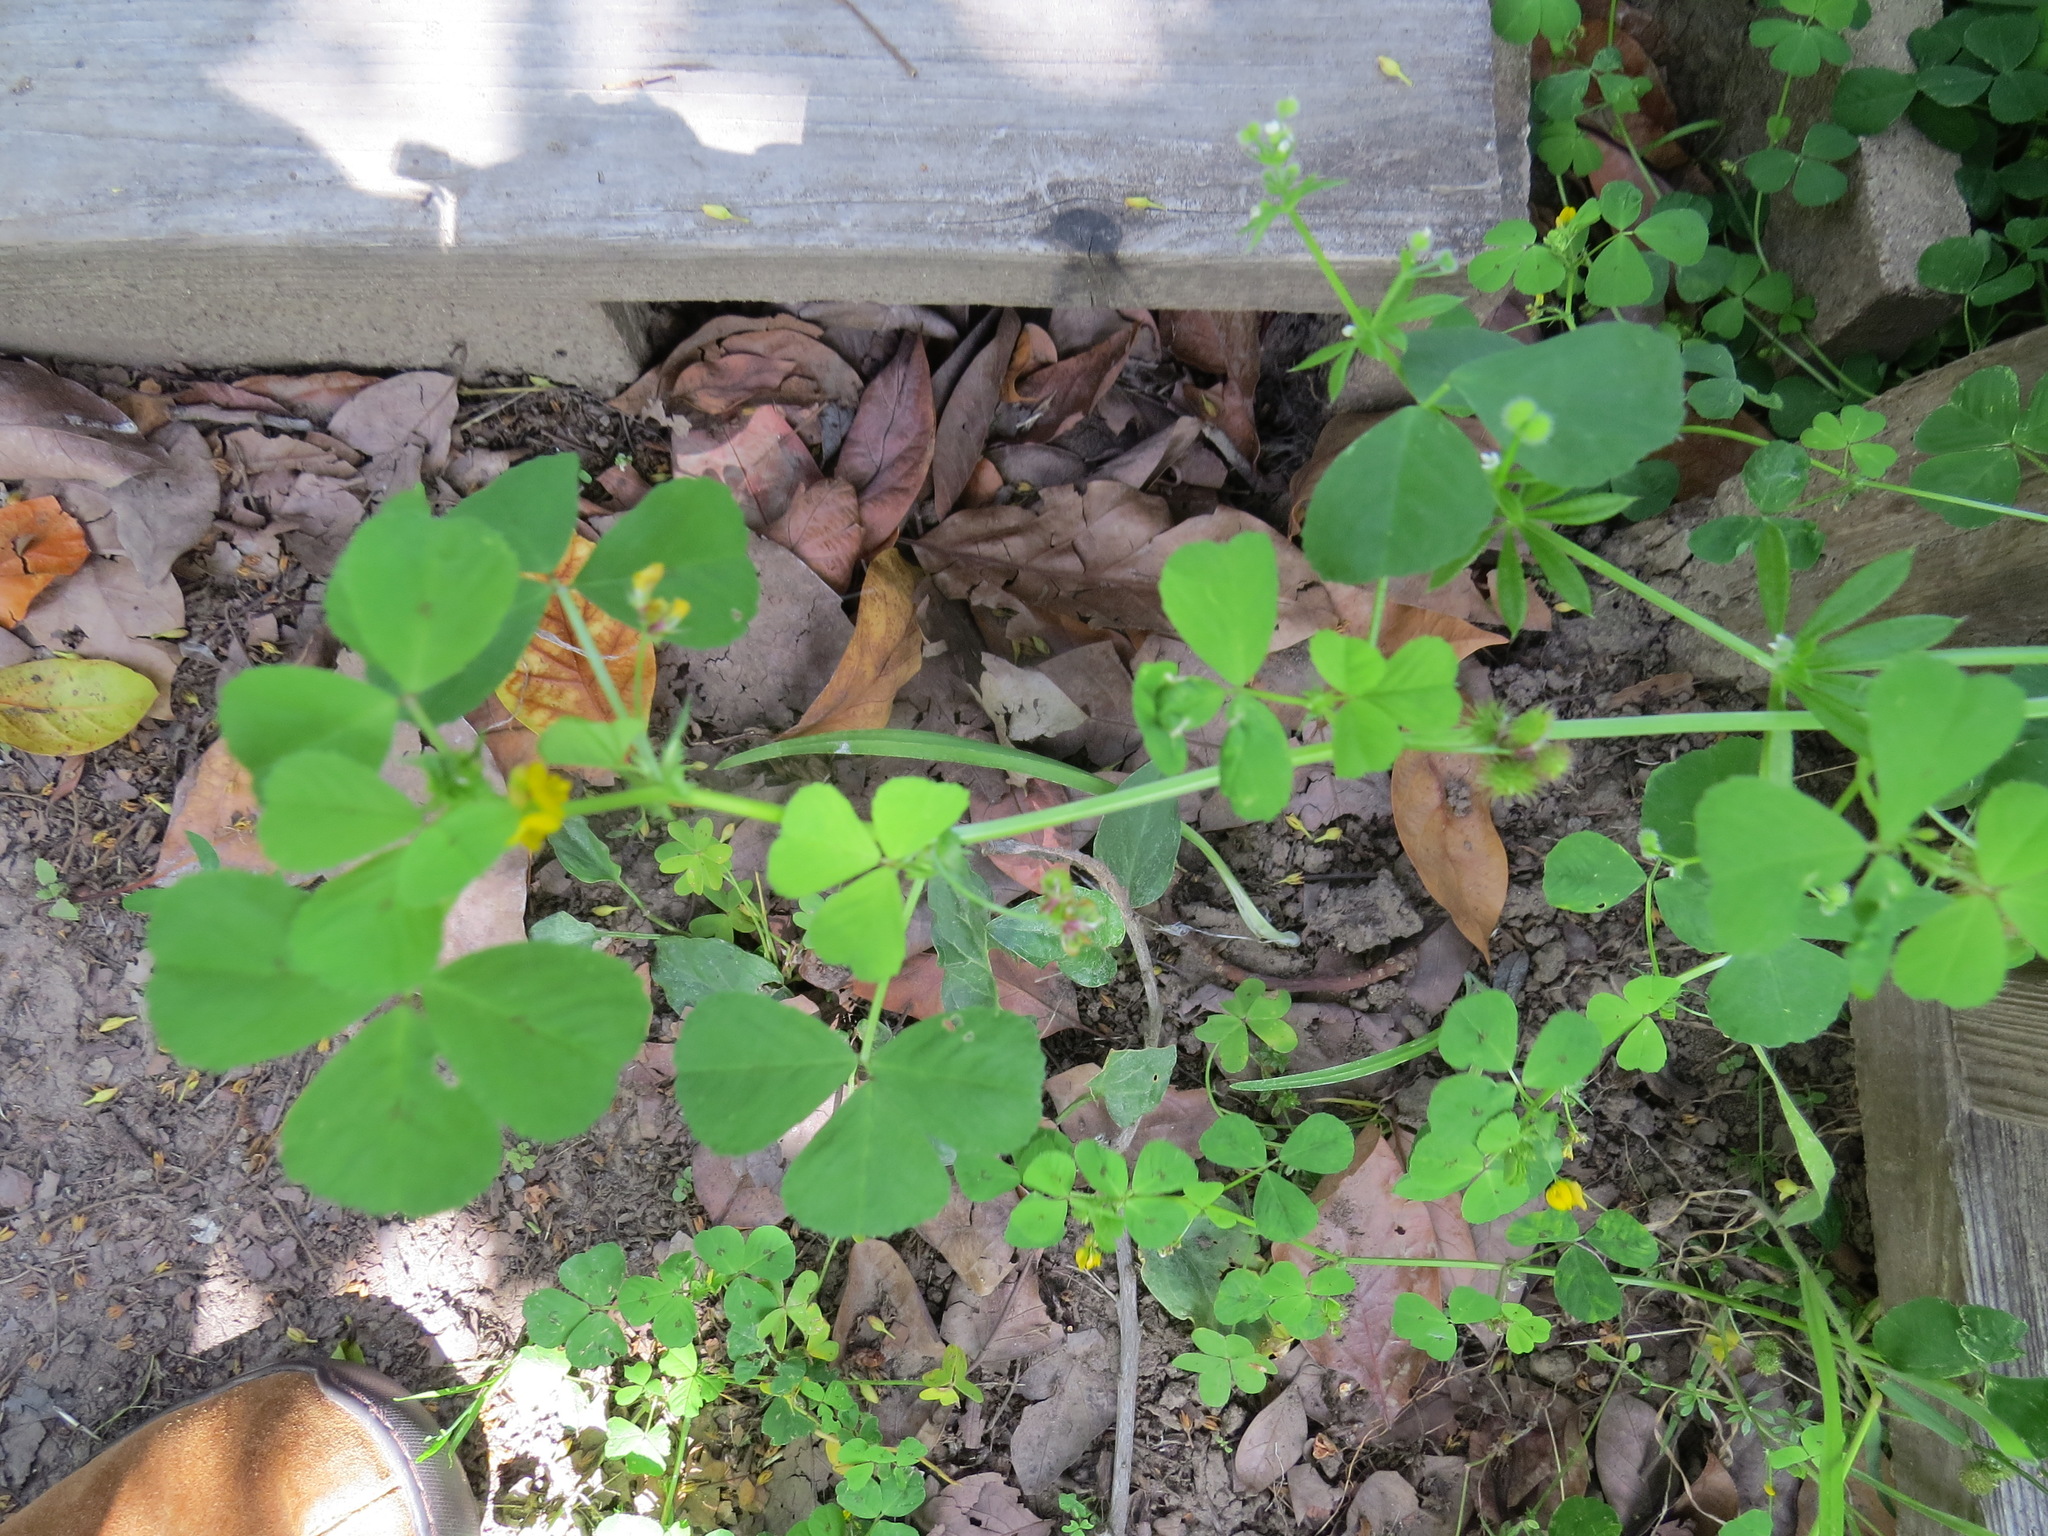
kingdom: Plantae
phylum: Tracheophyta
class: Magnoliopsida
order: Fabales
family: Fabaceae
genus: Medicago
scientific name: Medicago polymorpha
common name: Burclover
